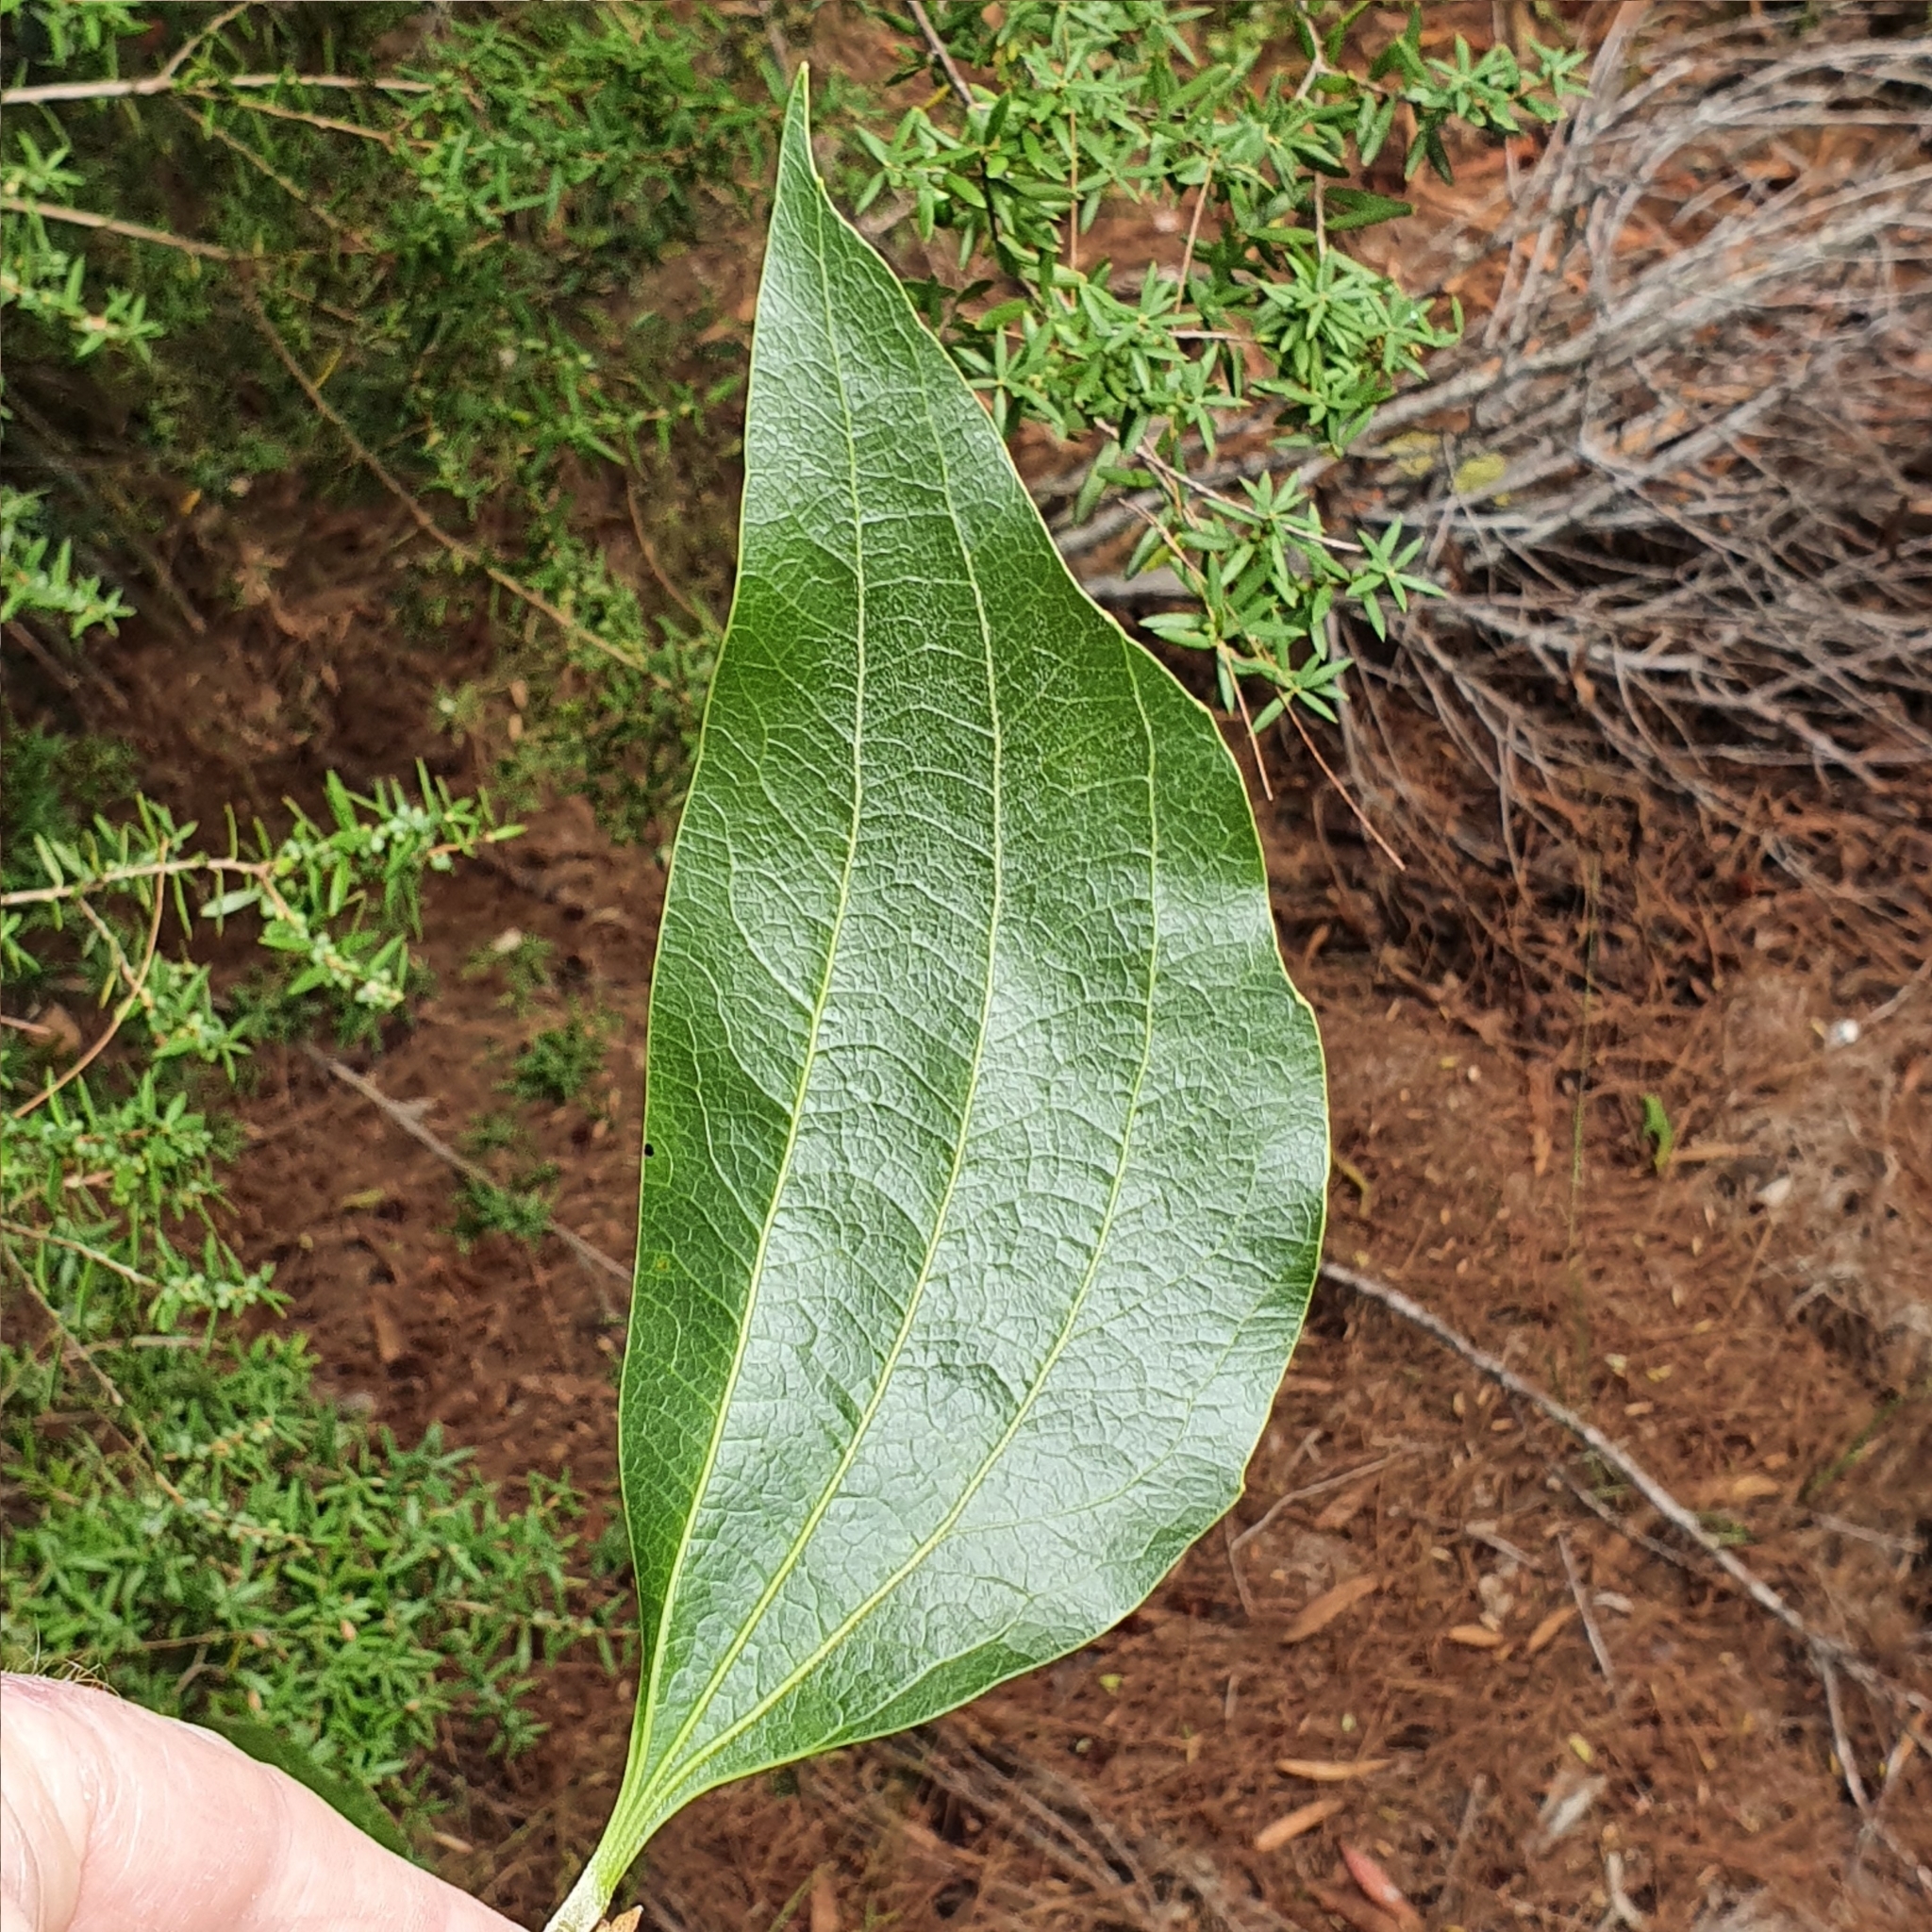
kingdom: Plantae
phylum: Tracheophyta
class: Magnoliopsida
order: Fabales
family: Fabaceae
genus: Acacia
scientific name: Acacia flavescens
